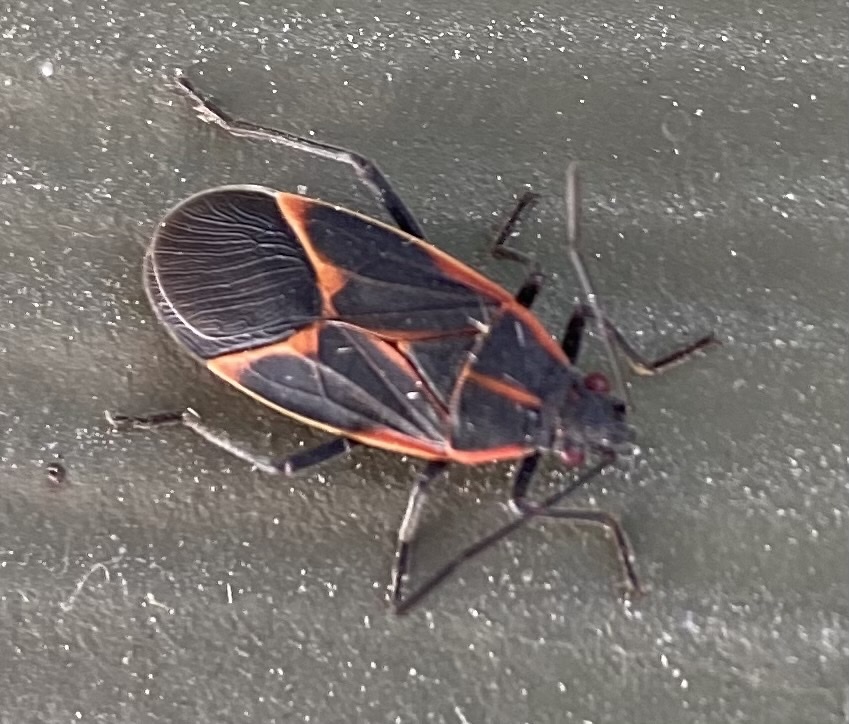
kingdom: Animalia
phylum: Arthropoda
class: Insecta
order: Hemiptera
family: Rhopalidae
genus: Boisea
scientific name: Boisea trivittata
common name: Boxelder bug
